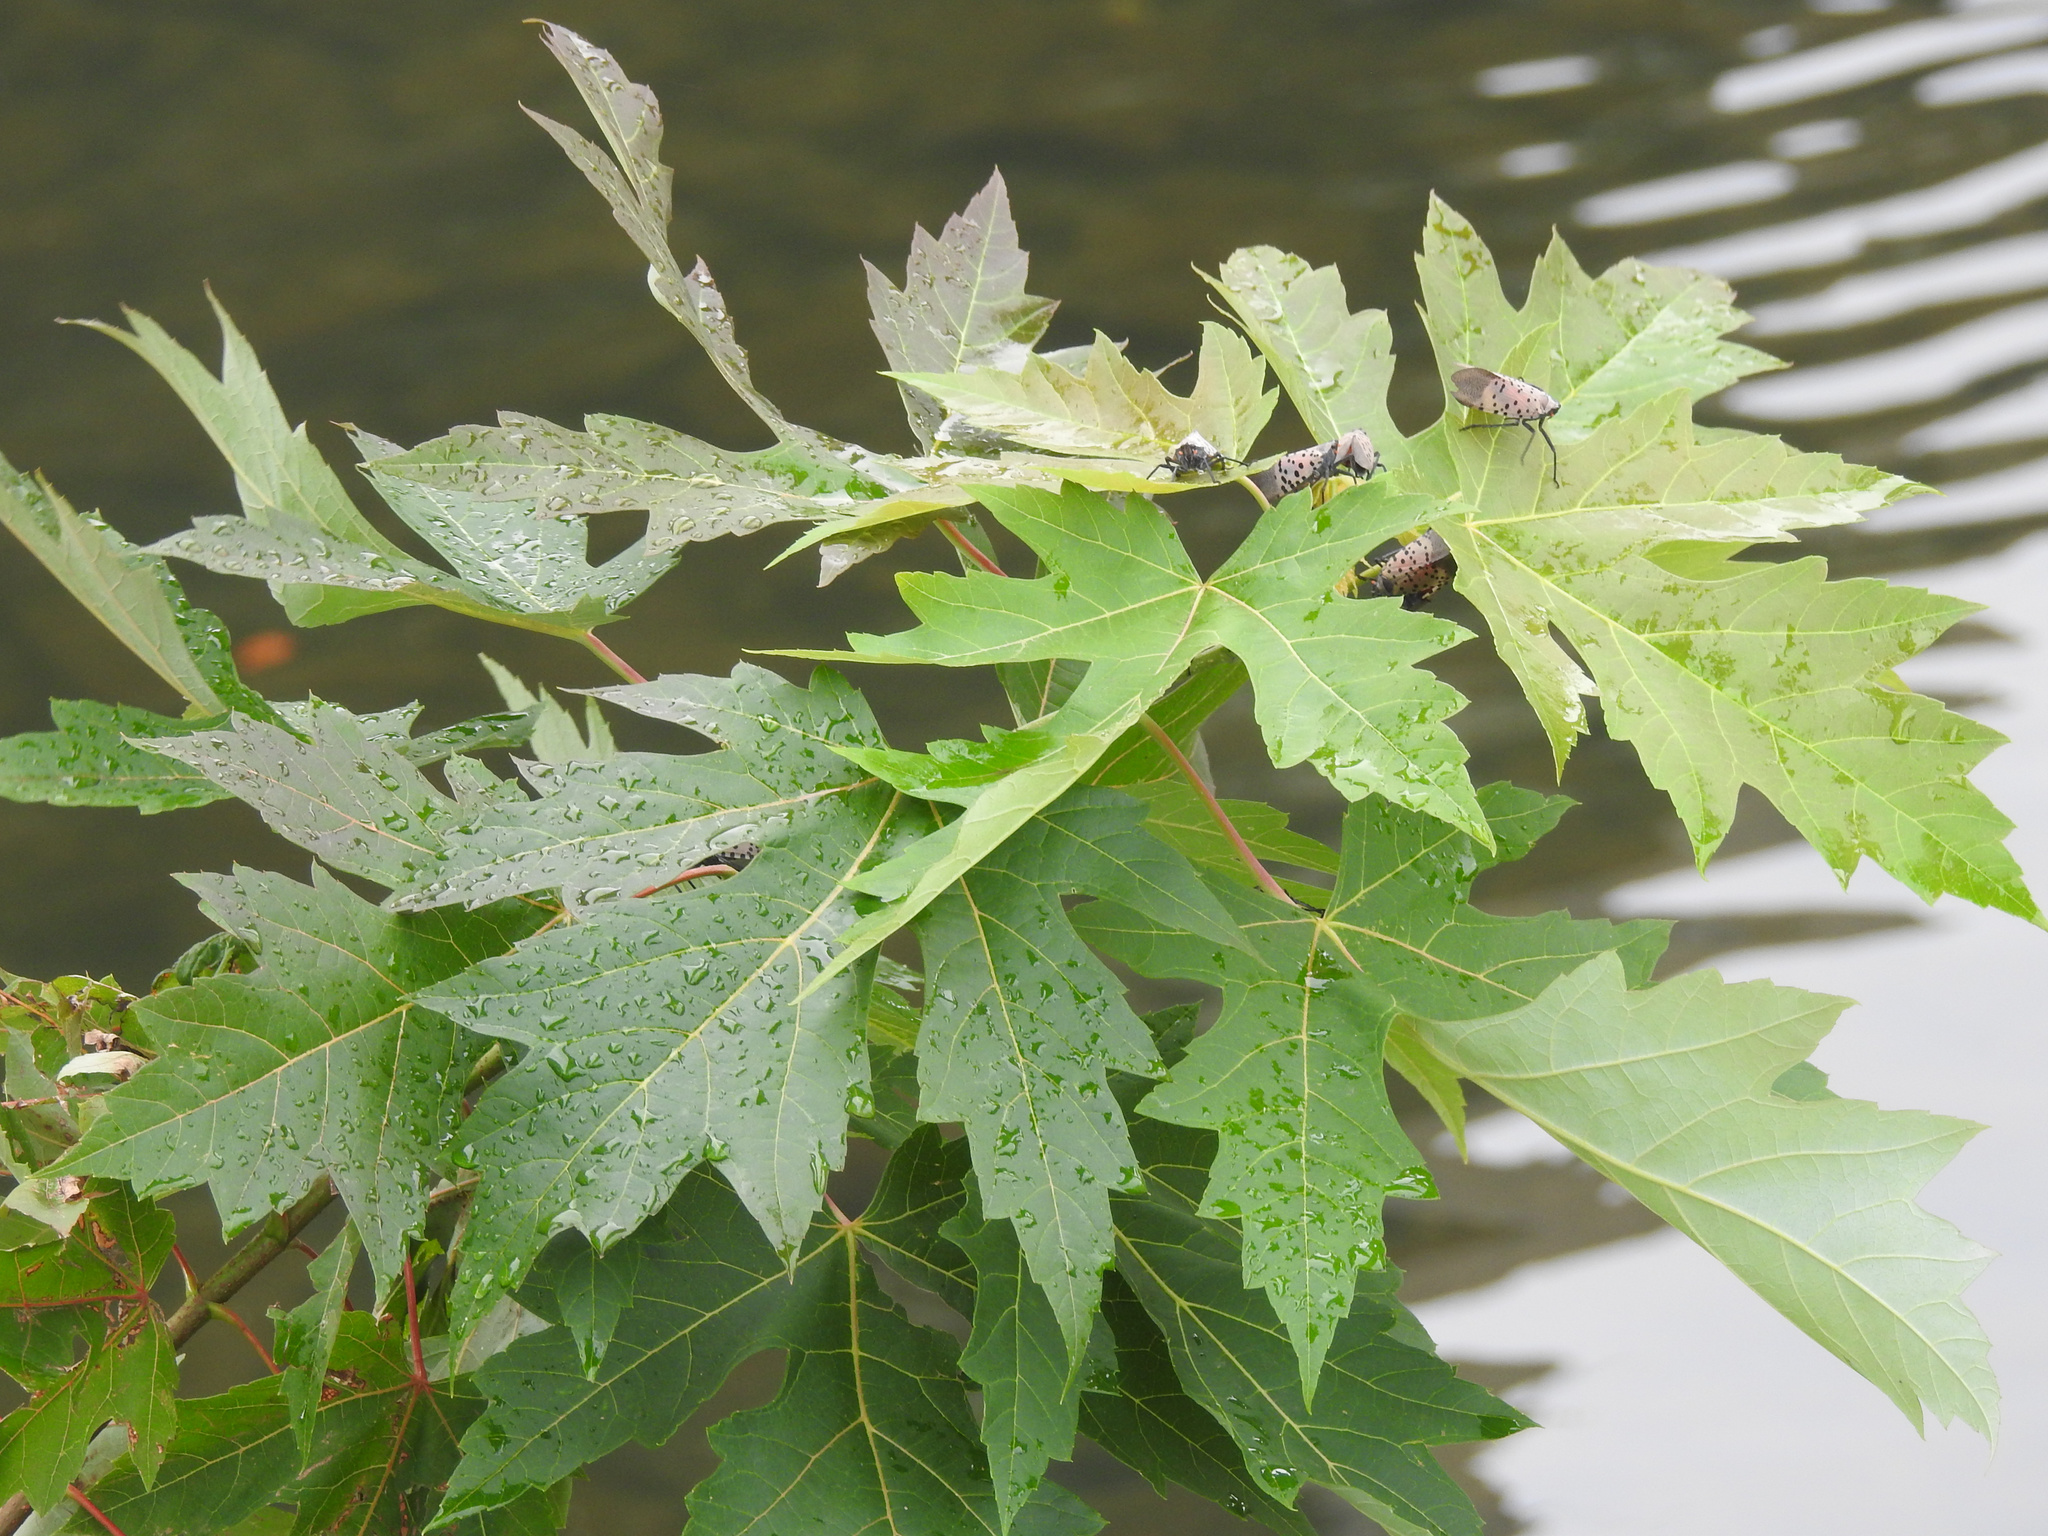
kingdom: Plantae
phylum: Tracheophyta
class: Magnoliopsida
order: Sapindales
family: Sapindaceae
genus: Acer
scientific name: Acer saccharinum
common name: Silver maple
